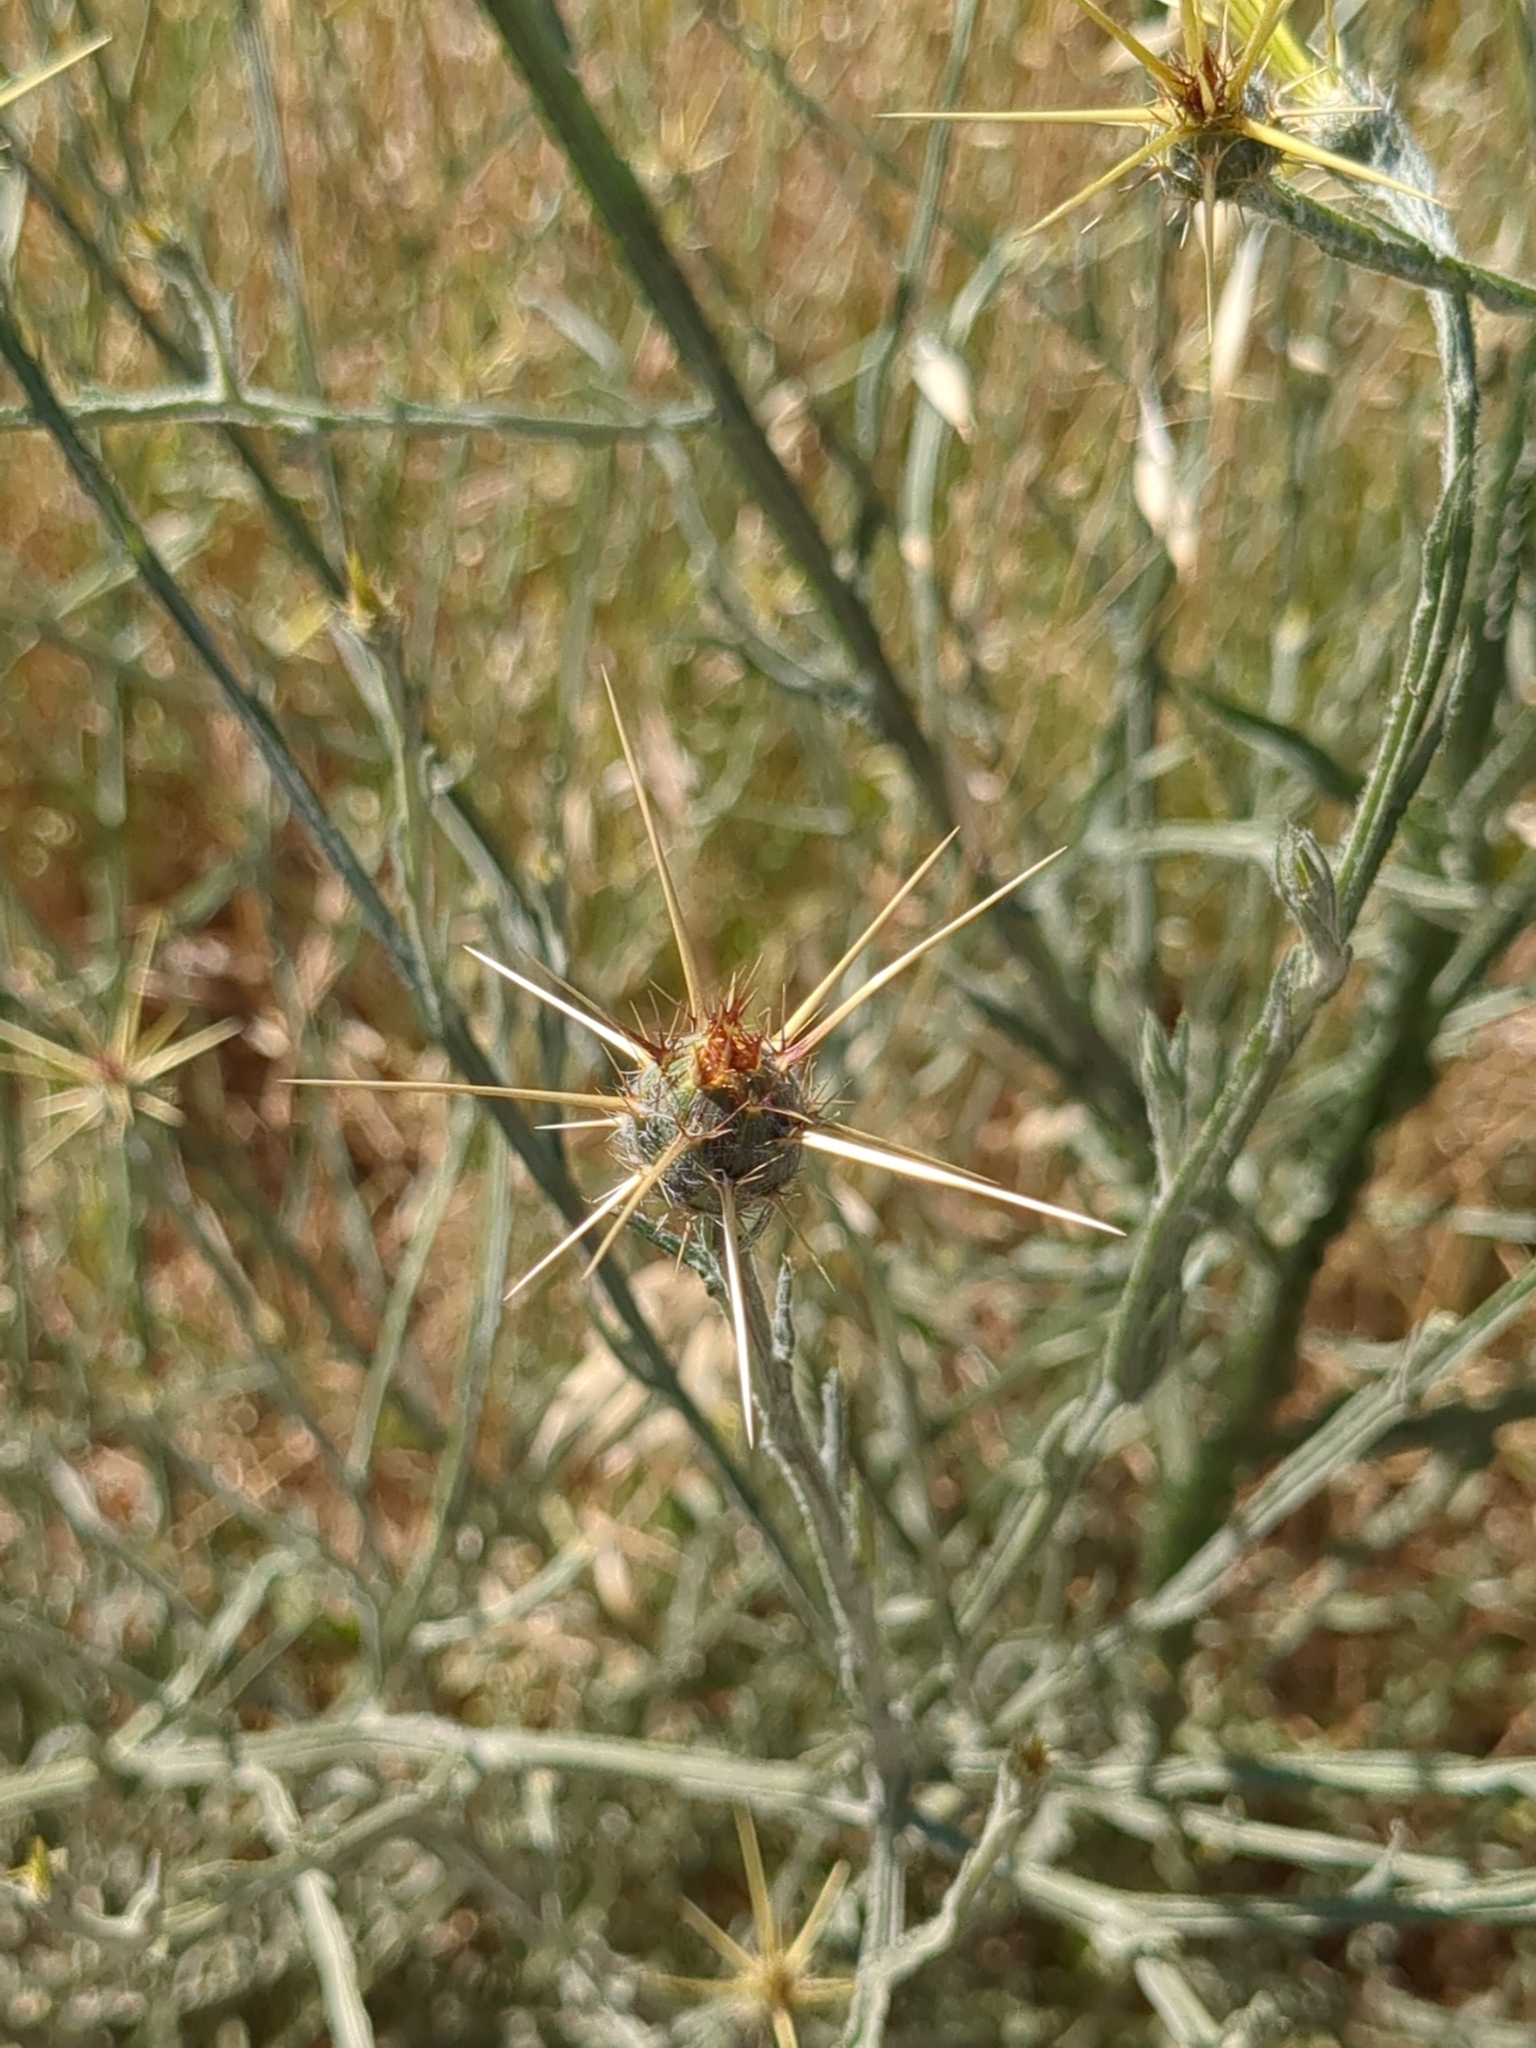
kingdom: Plantae
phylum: Tracheophyta
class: Magnoliopsida
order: Asterales
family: Asteraceae
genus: Centaurea
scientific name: Centaurea solstitialis
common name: Yellow star-thistle
